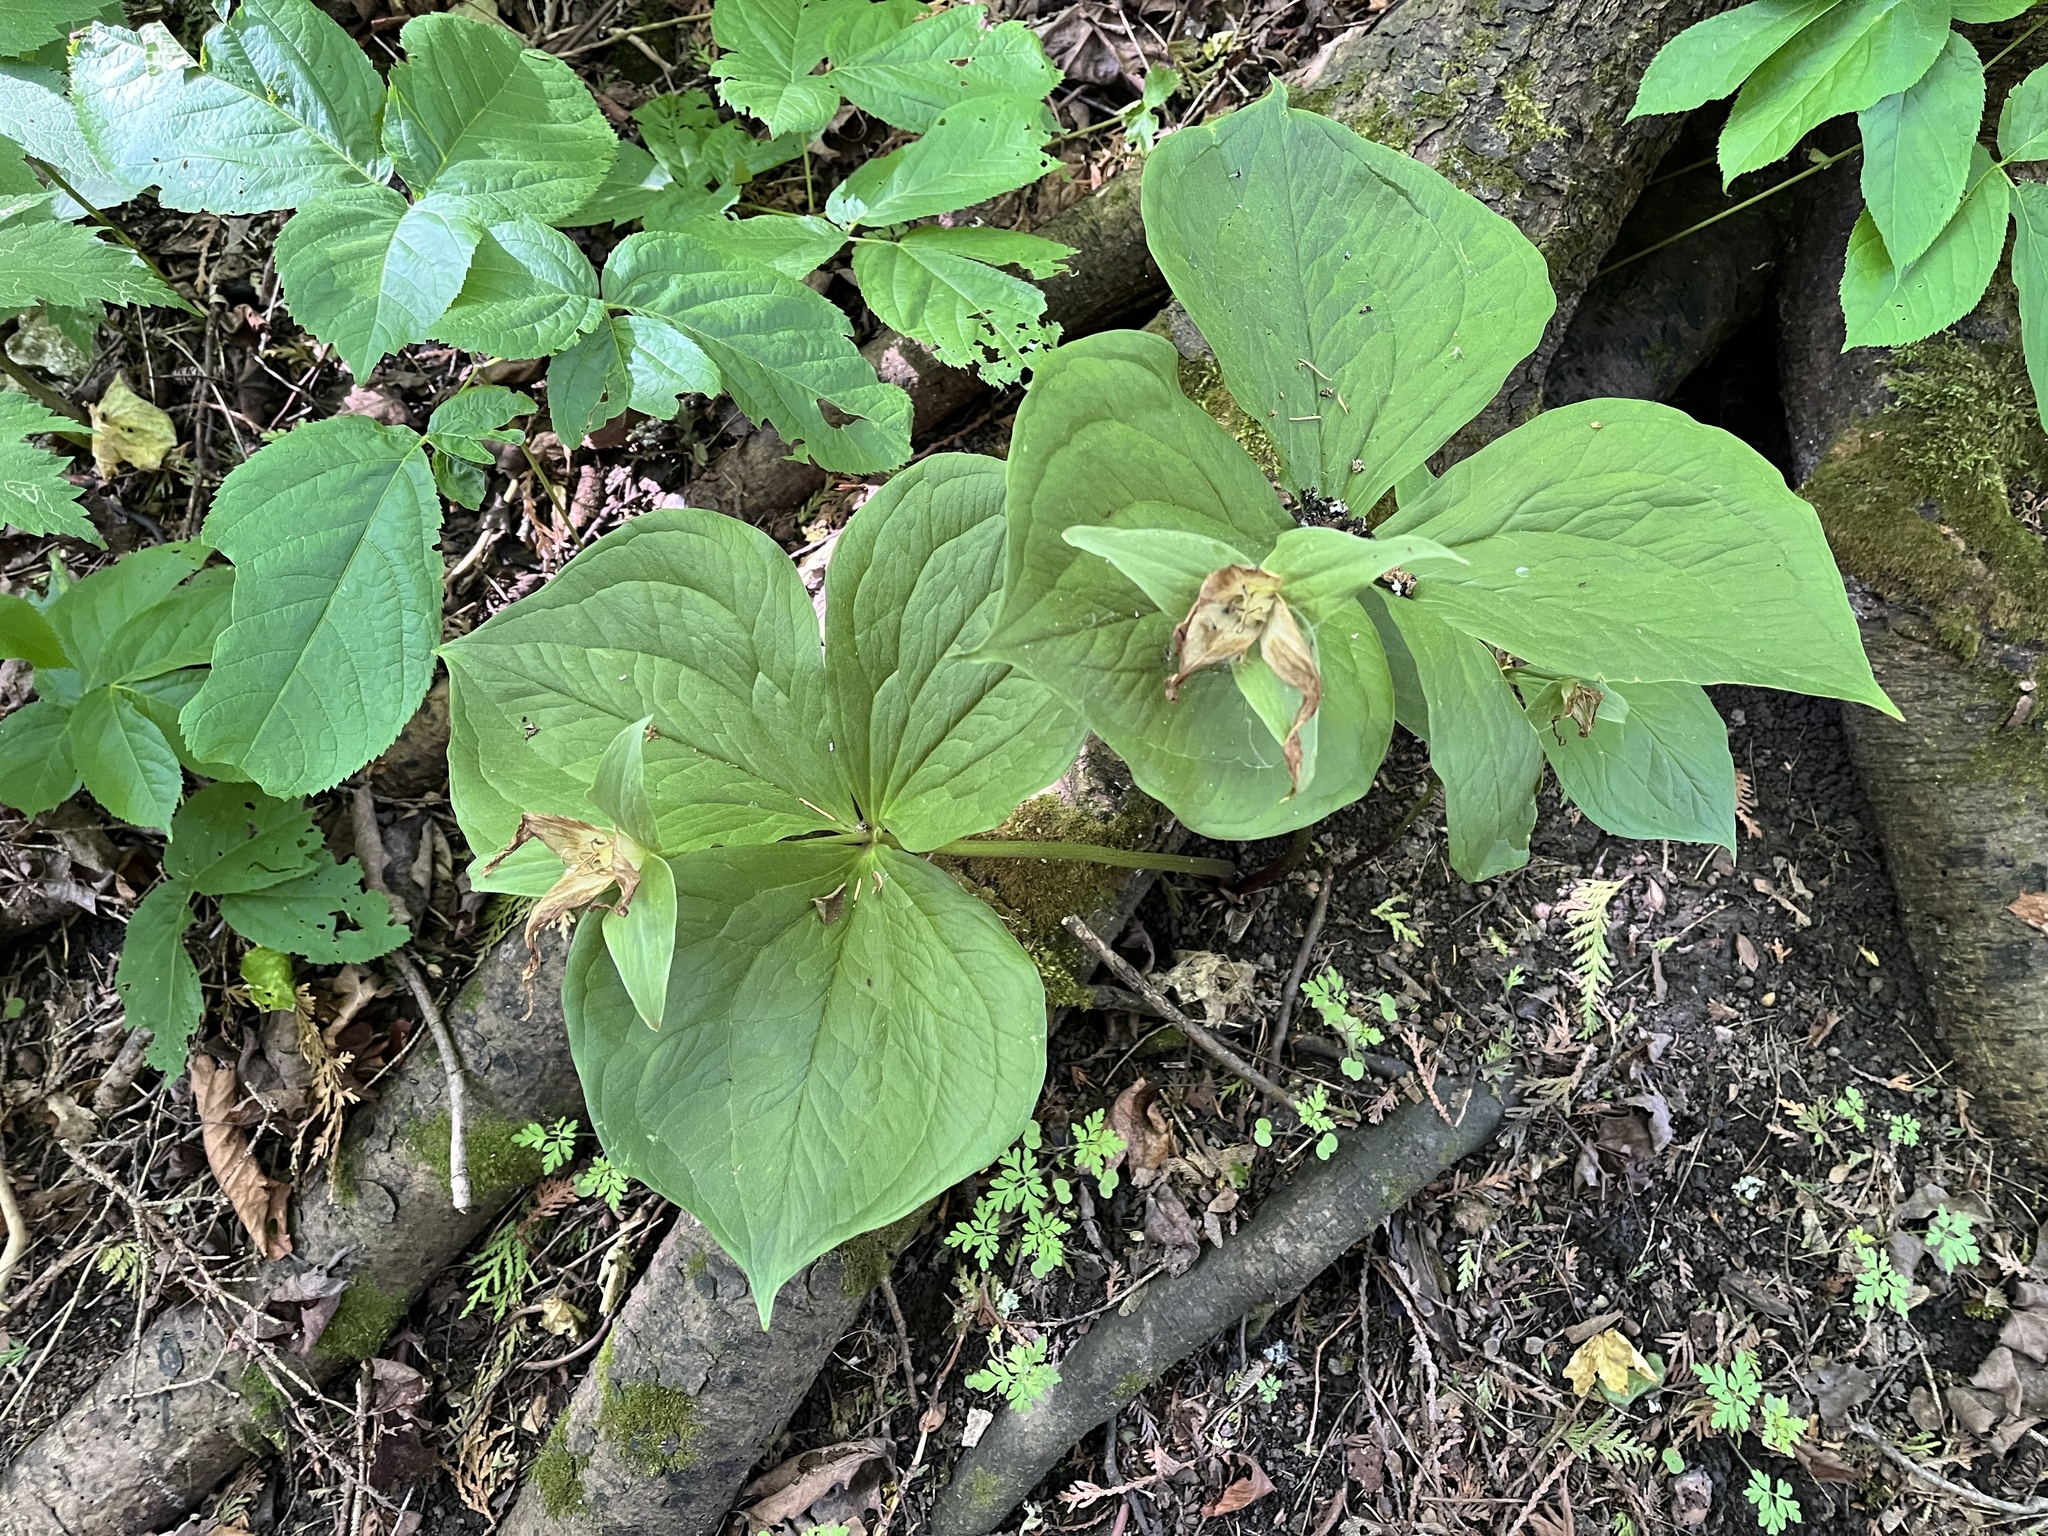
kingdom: Plantae
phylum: Tracheophyta
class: Liliopsida
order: Liliales
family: Melanthiaceae
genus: Trillium
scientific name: Trillium grandiflorum
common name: Great white trillium
